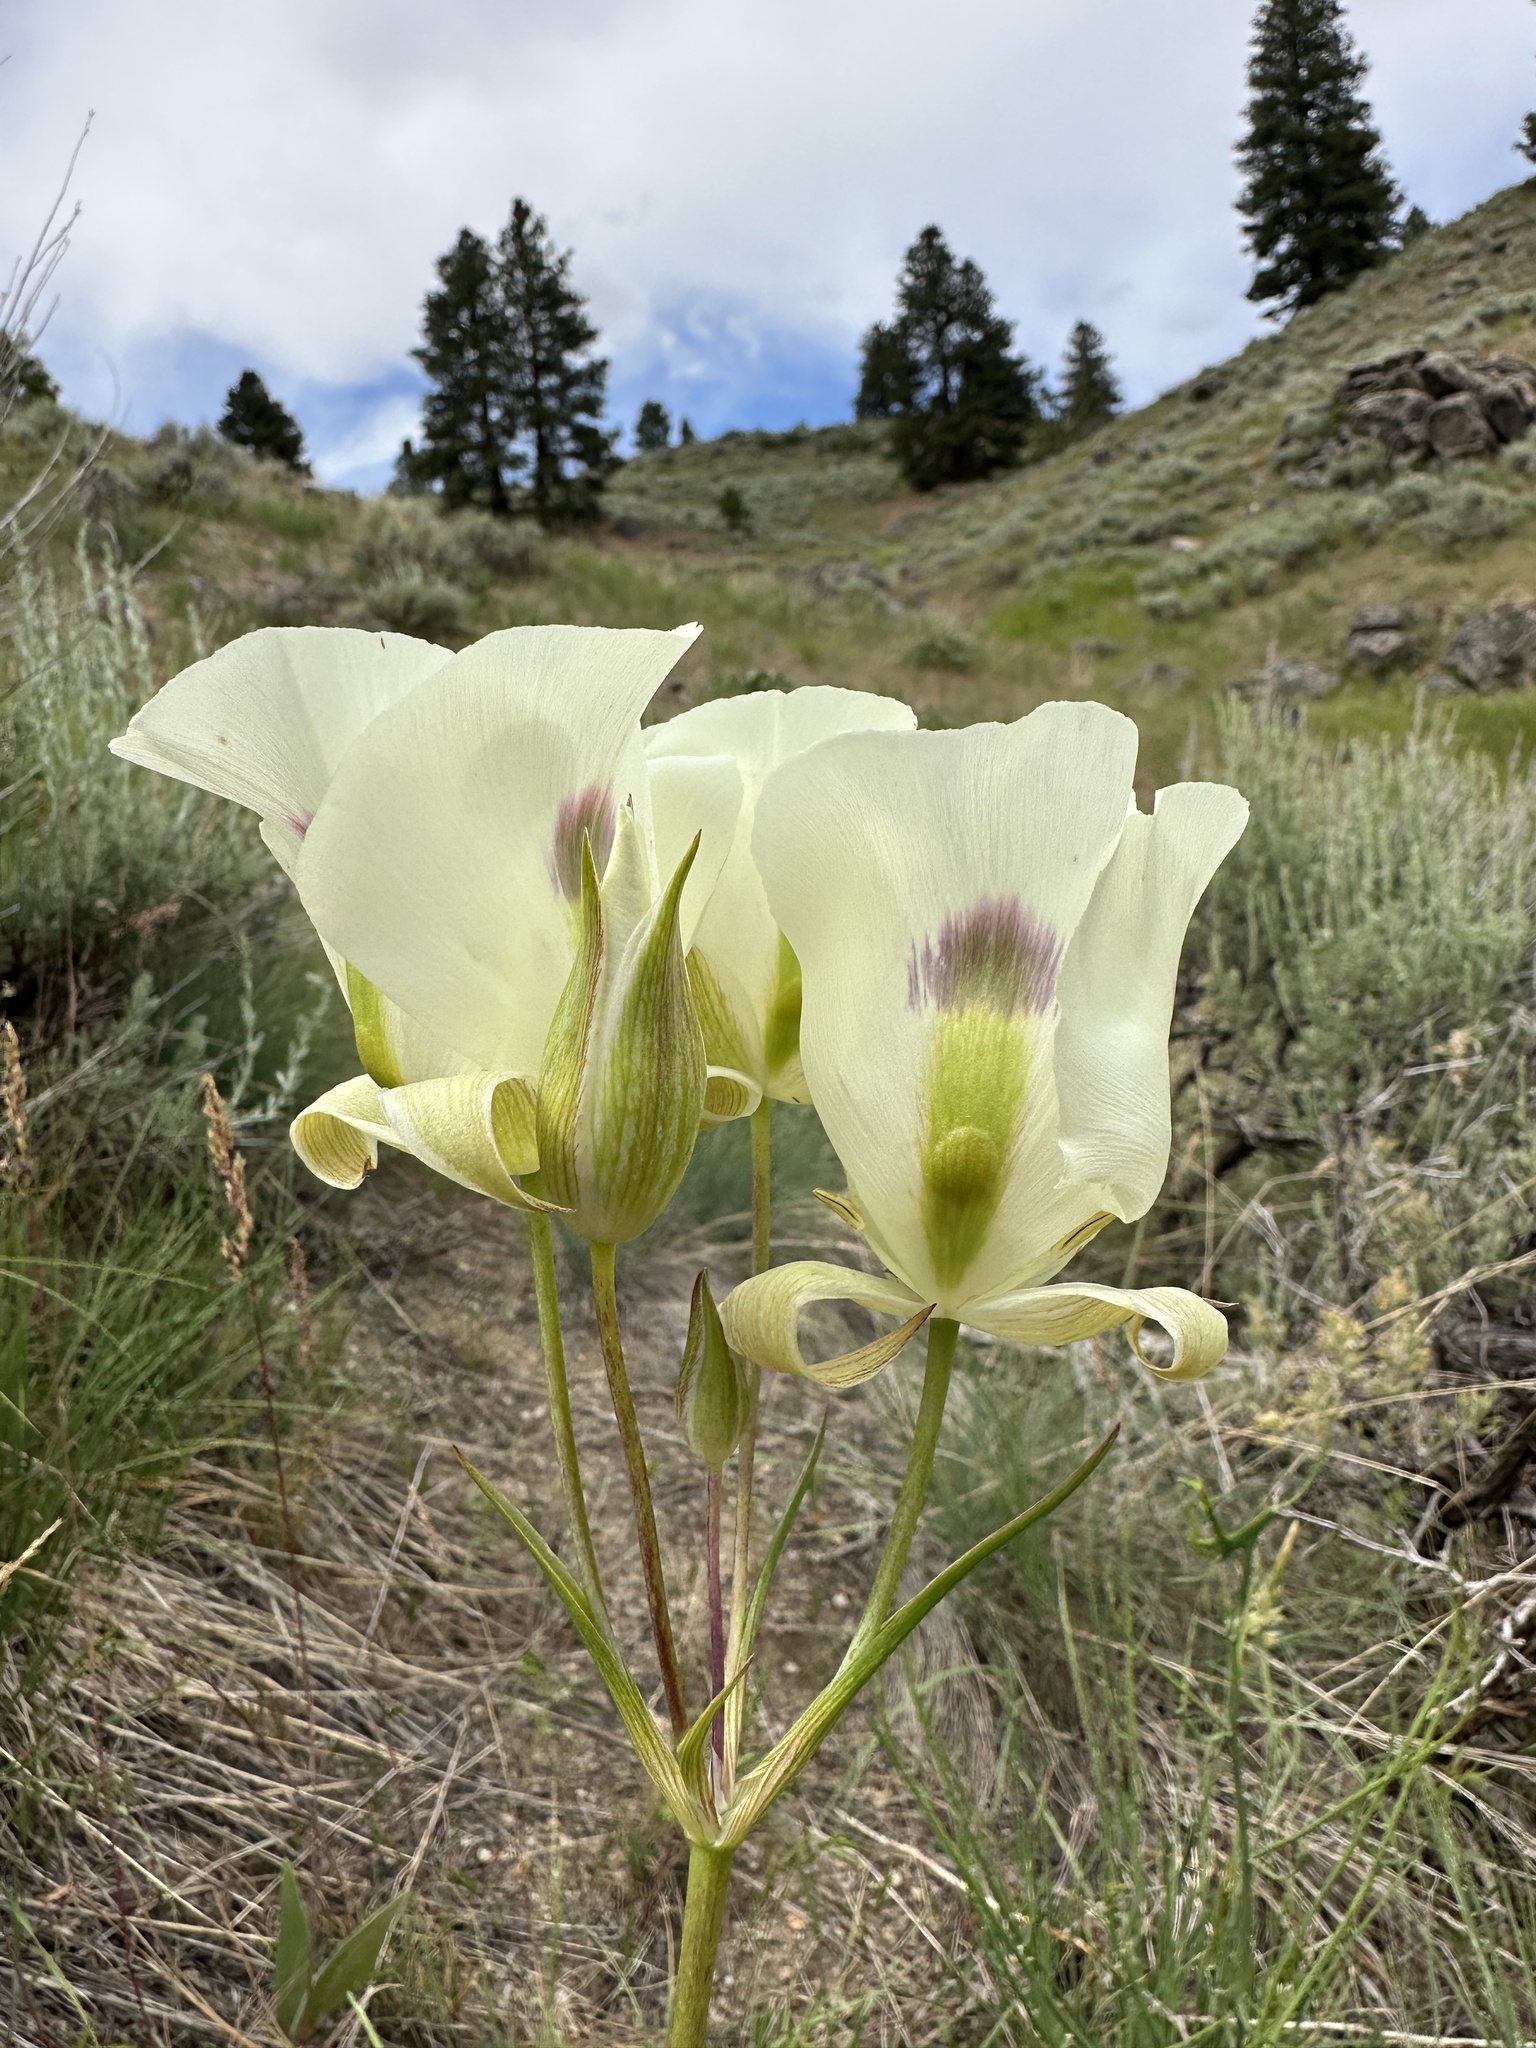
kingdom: Plantae
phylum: Tracheophyta
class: Liliopsida
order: Liliales
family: Liliaceae
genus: Calochortus
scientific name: Calochortus eurycarpus
